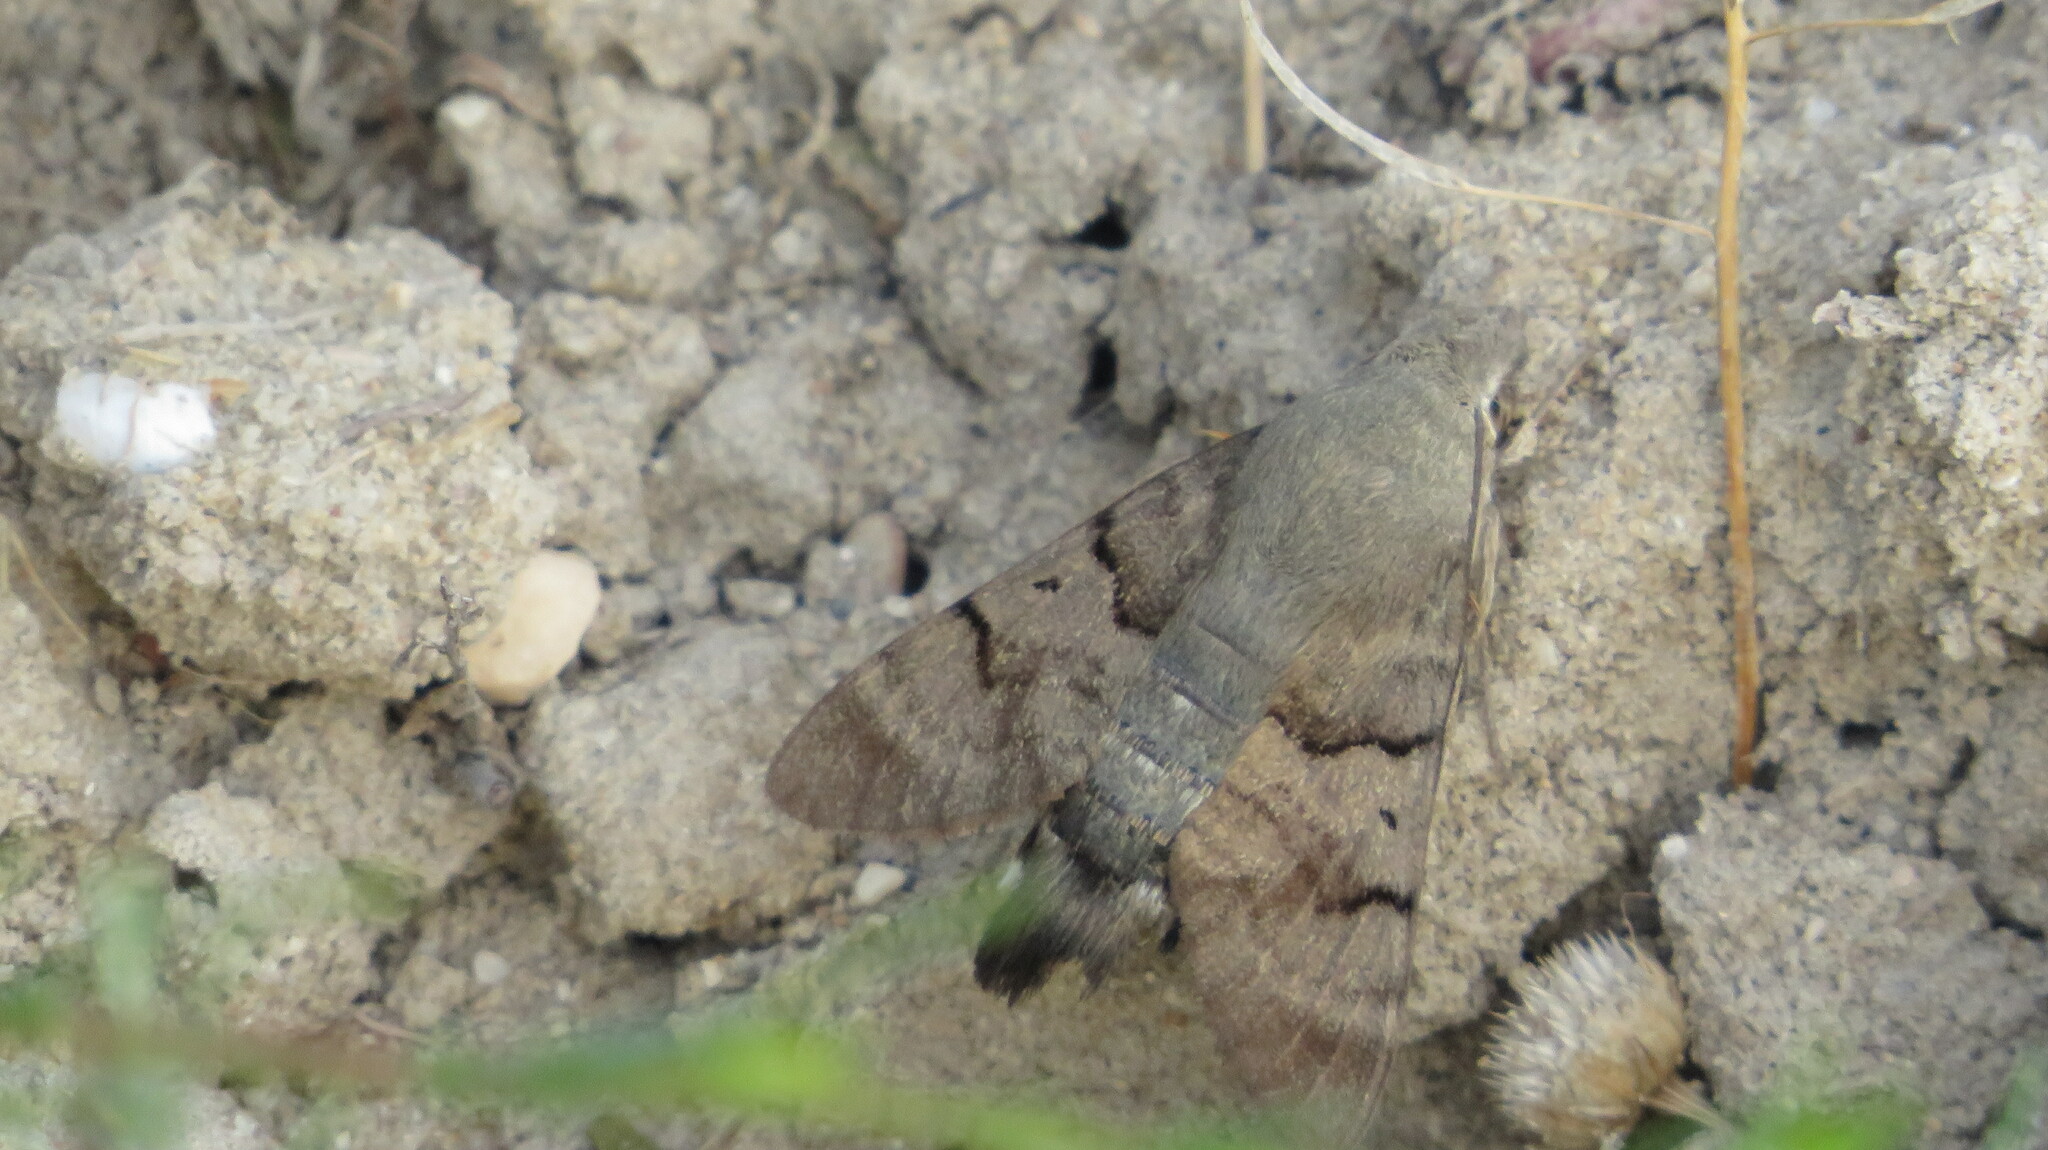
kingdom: Animalia
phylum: Arthropoda
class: Insecta
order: Lepidoptera
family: Sphingidae
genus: Macroglossum
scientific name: Macroglossum stellatarum
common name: Humming-bird hawk-moth
